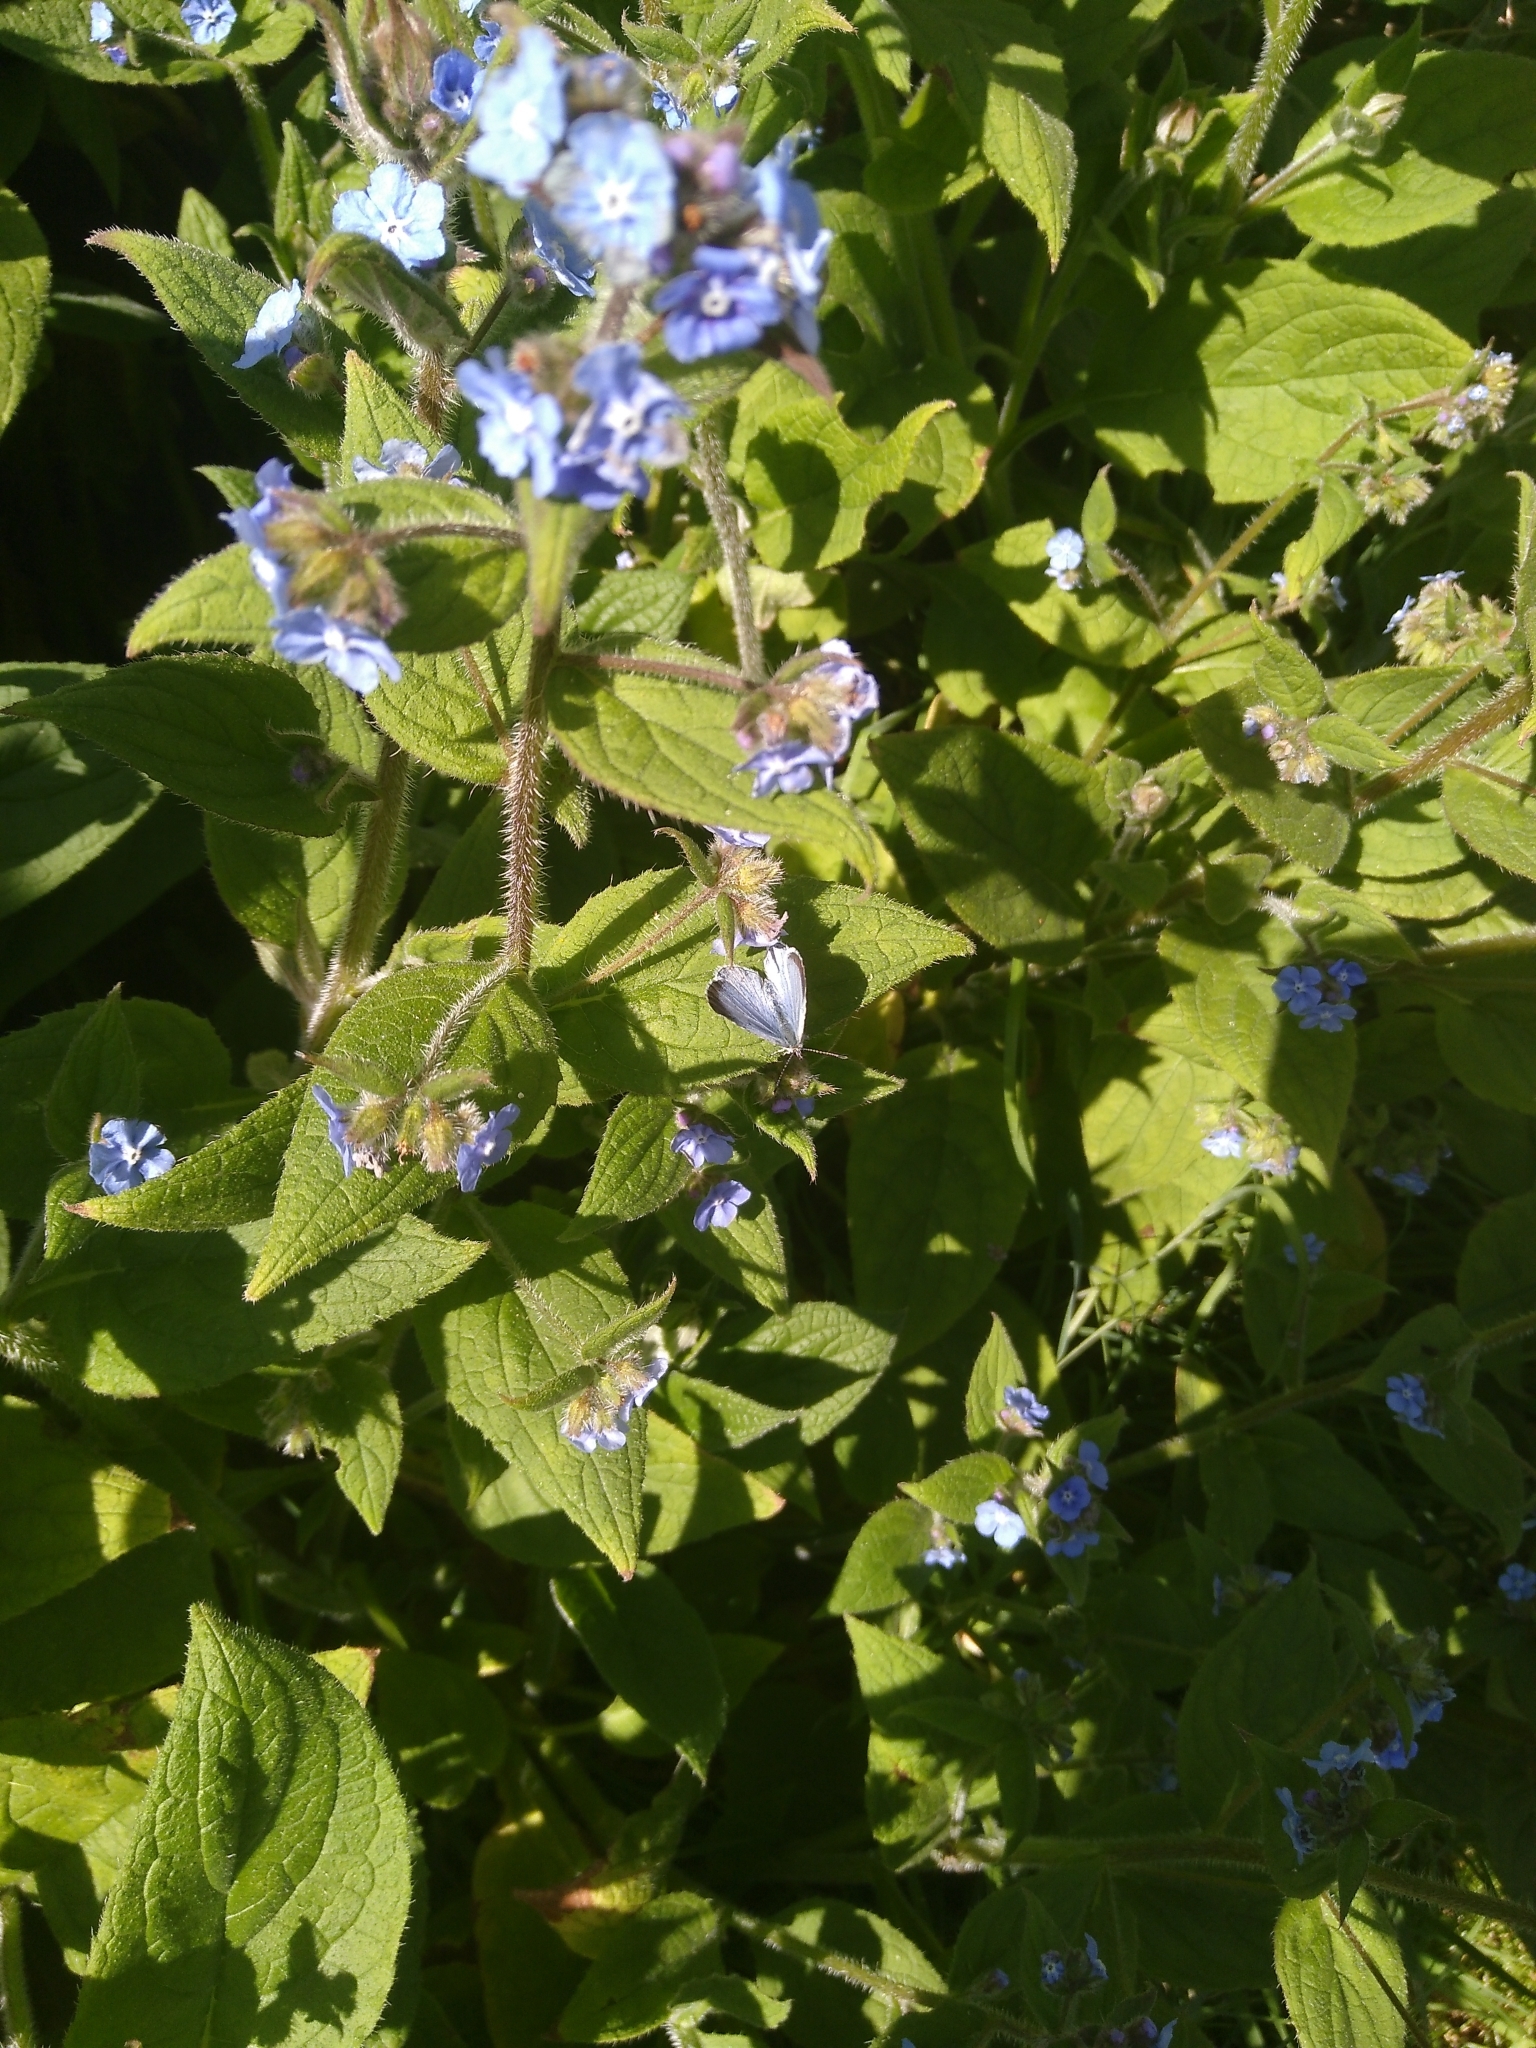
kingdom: Animalia
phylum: Arthropoda
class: Insecta
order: Lepidoptera
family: Lycaenidae
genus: Celastrina
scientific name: Celastrina argiolus
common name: Holly blue
